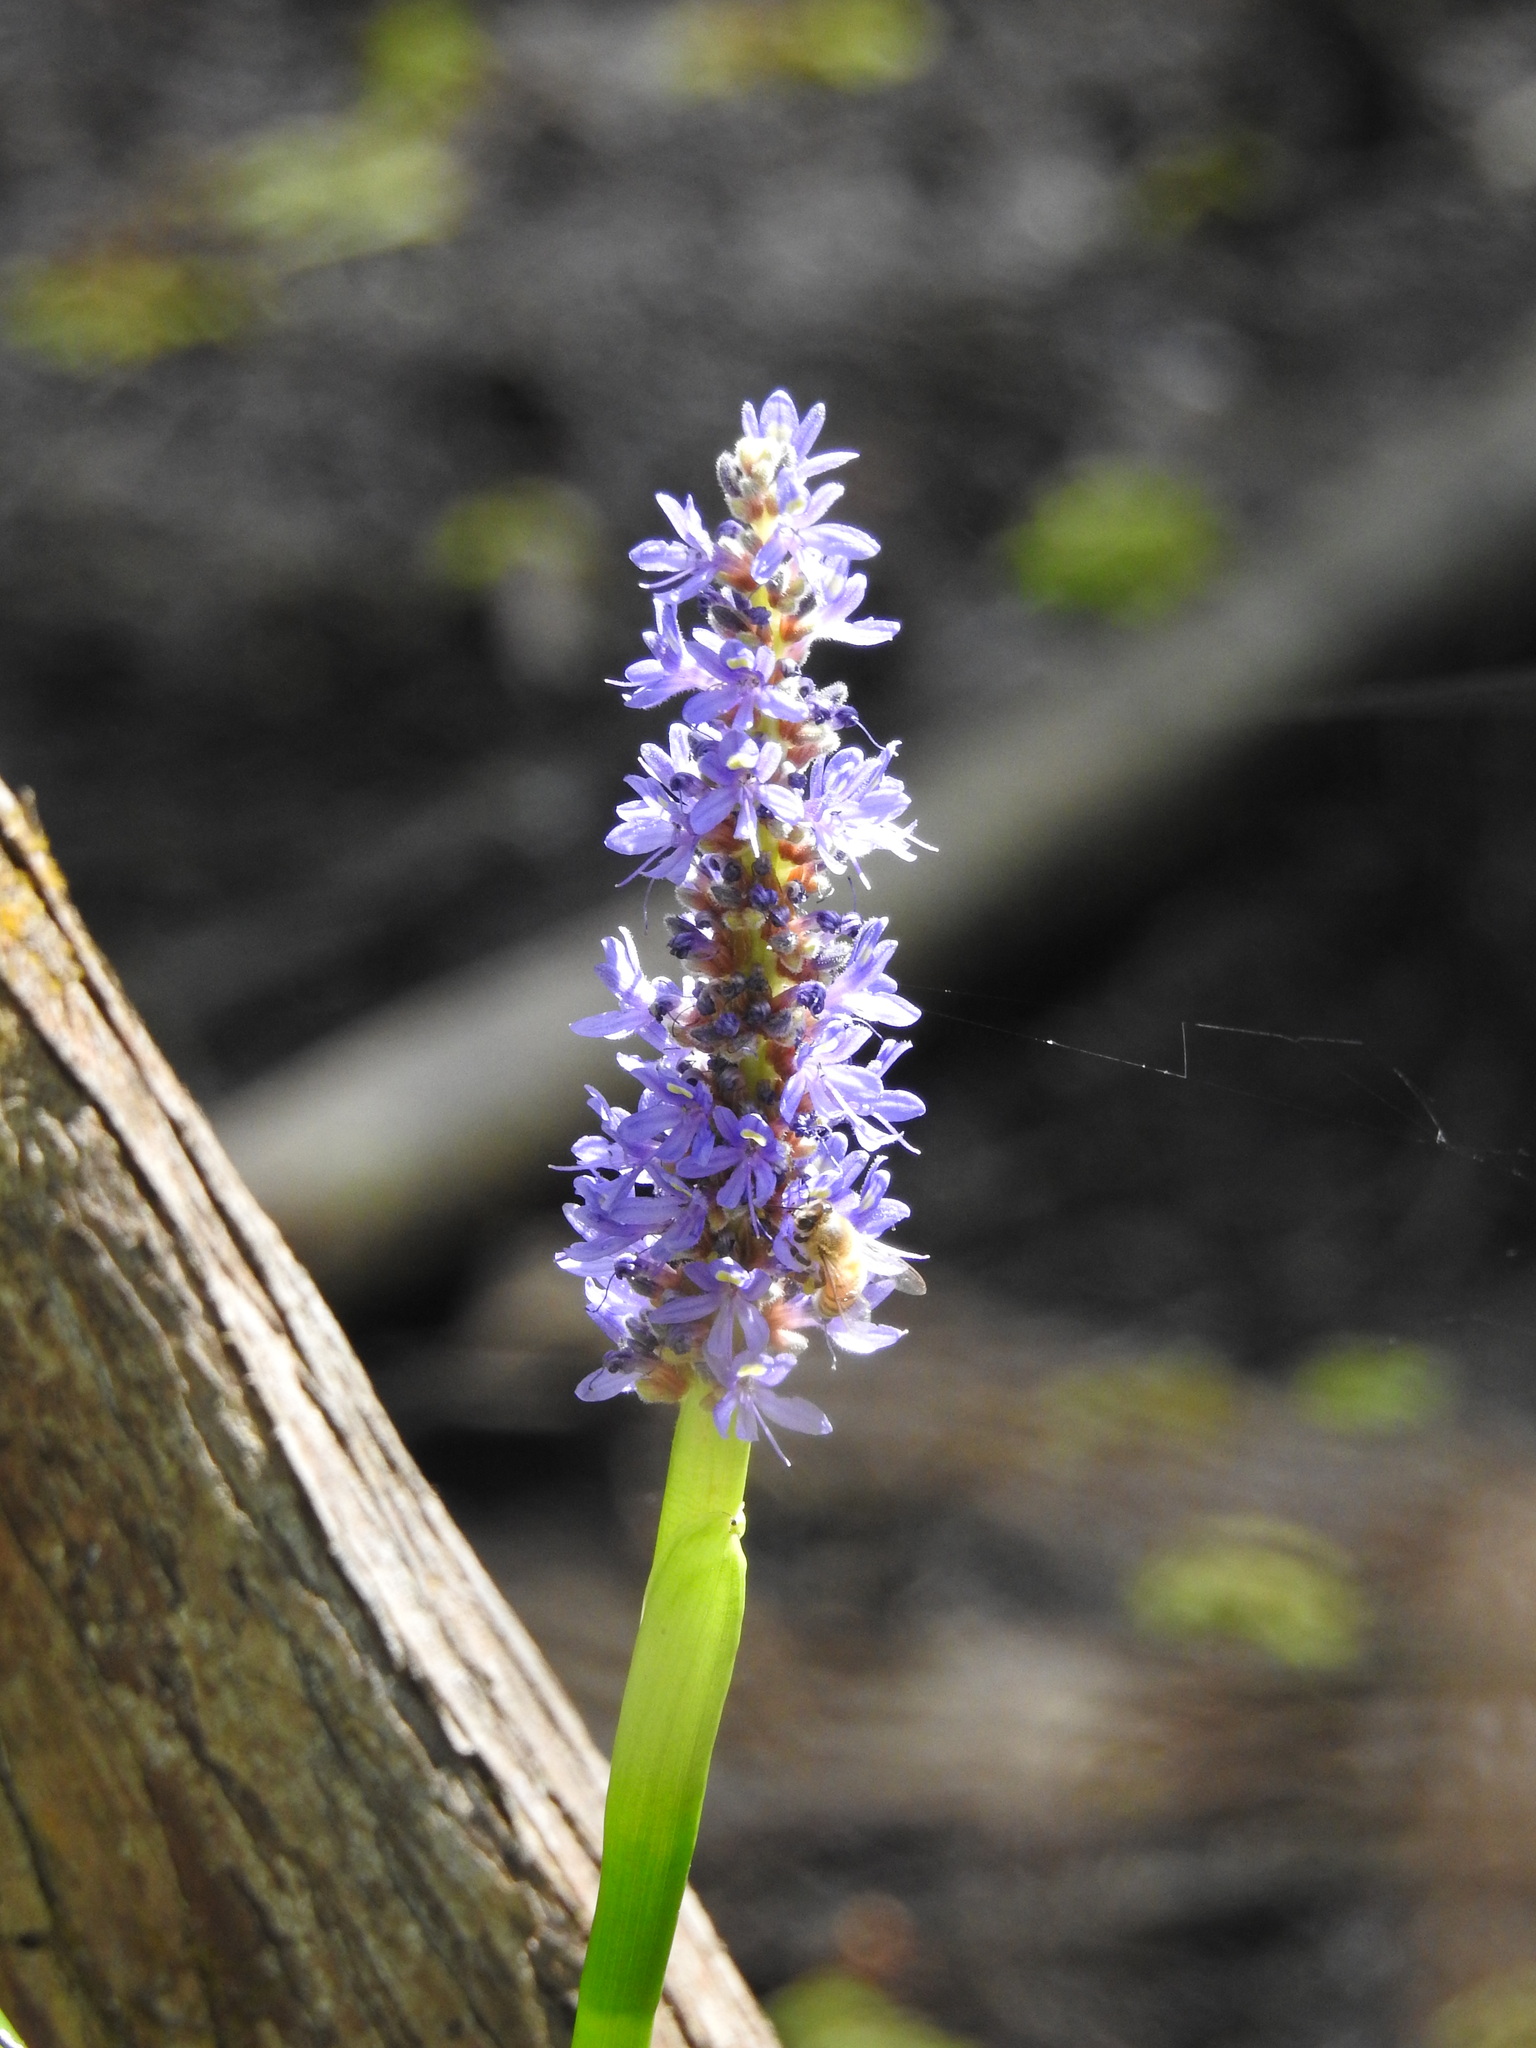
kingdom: Plantae
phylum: Tracheophyta
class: Liliopsida
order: Commelinales
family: Pontederiaceae
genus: Pontederia
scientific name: Pontederia cordata
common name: Pickerelweed
